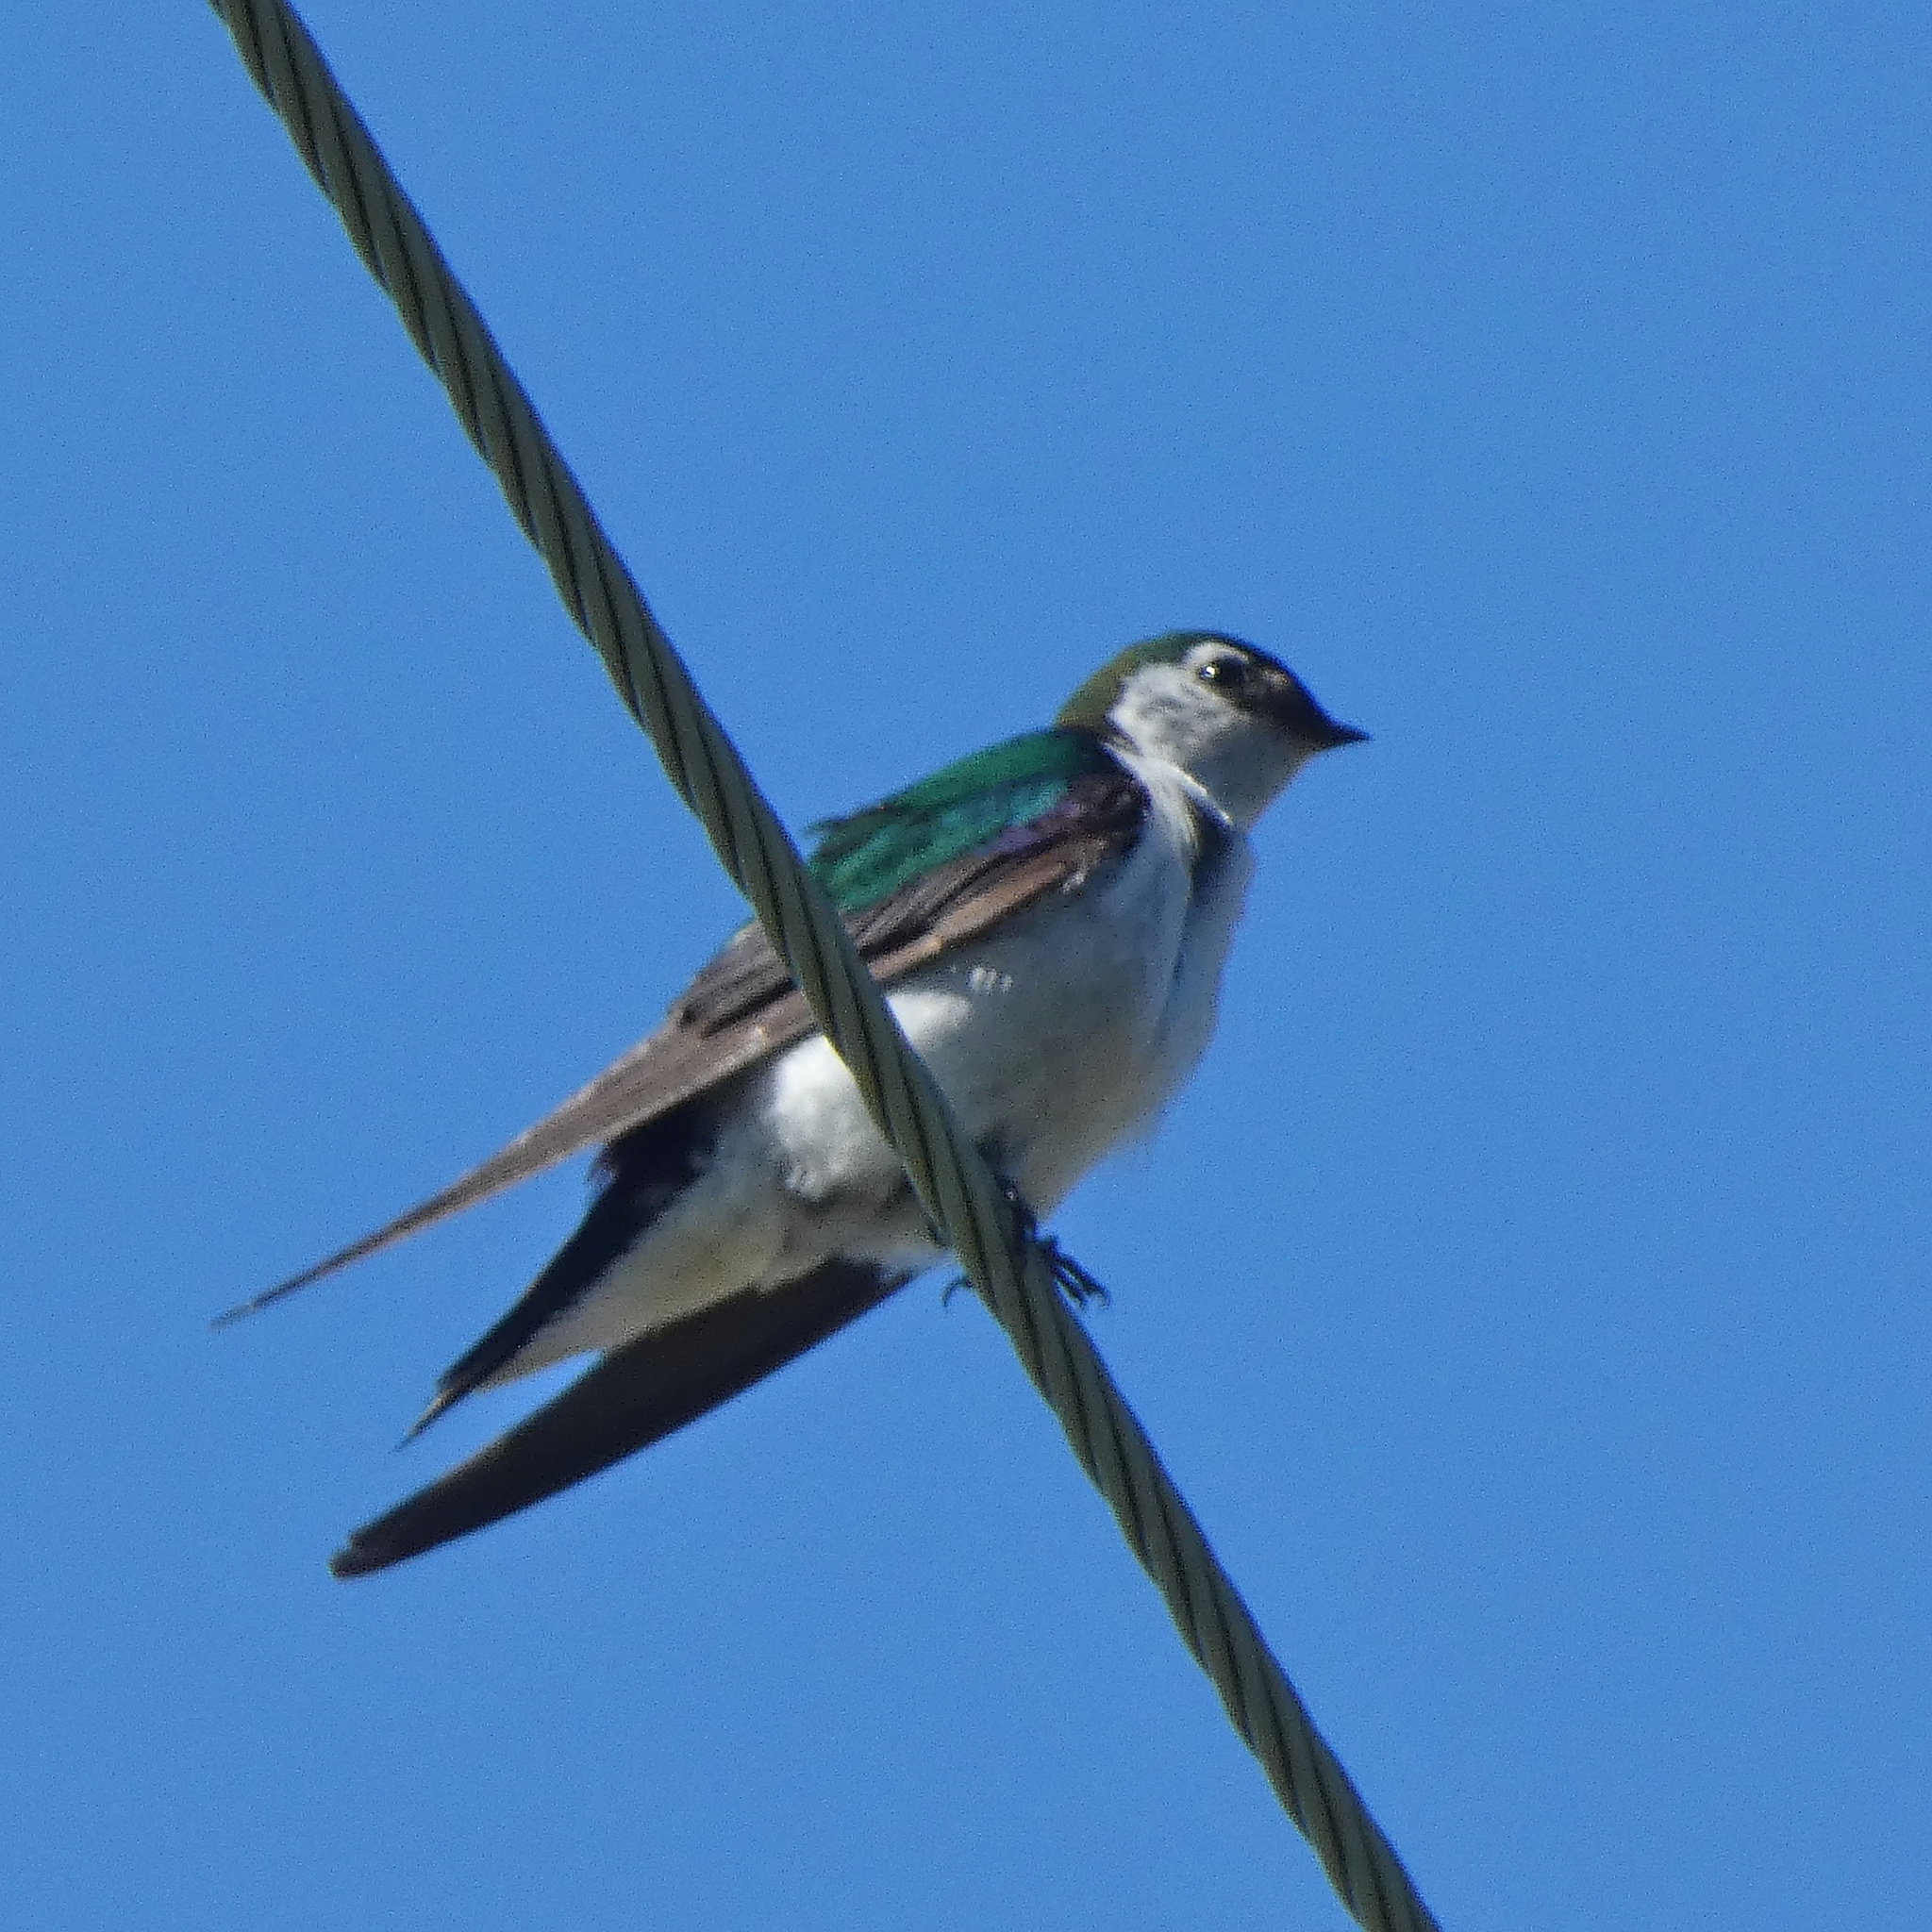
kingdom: Animalia
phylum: Chordata
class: Aves
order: Passeriformes
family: Hirundinidae
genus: Tachycineta
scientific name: Tachycineta thalassina
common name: Violet-green swallow
